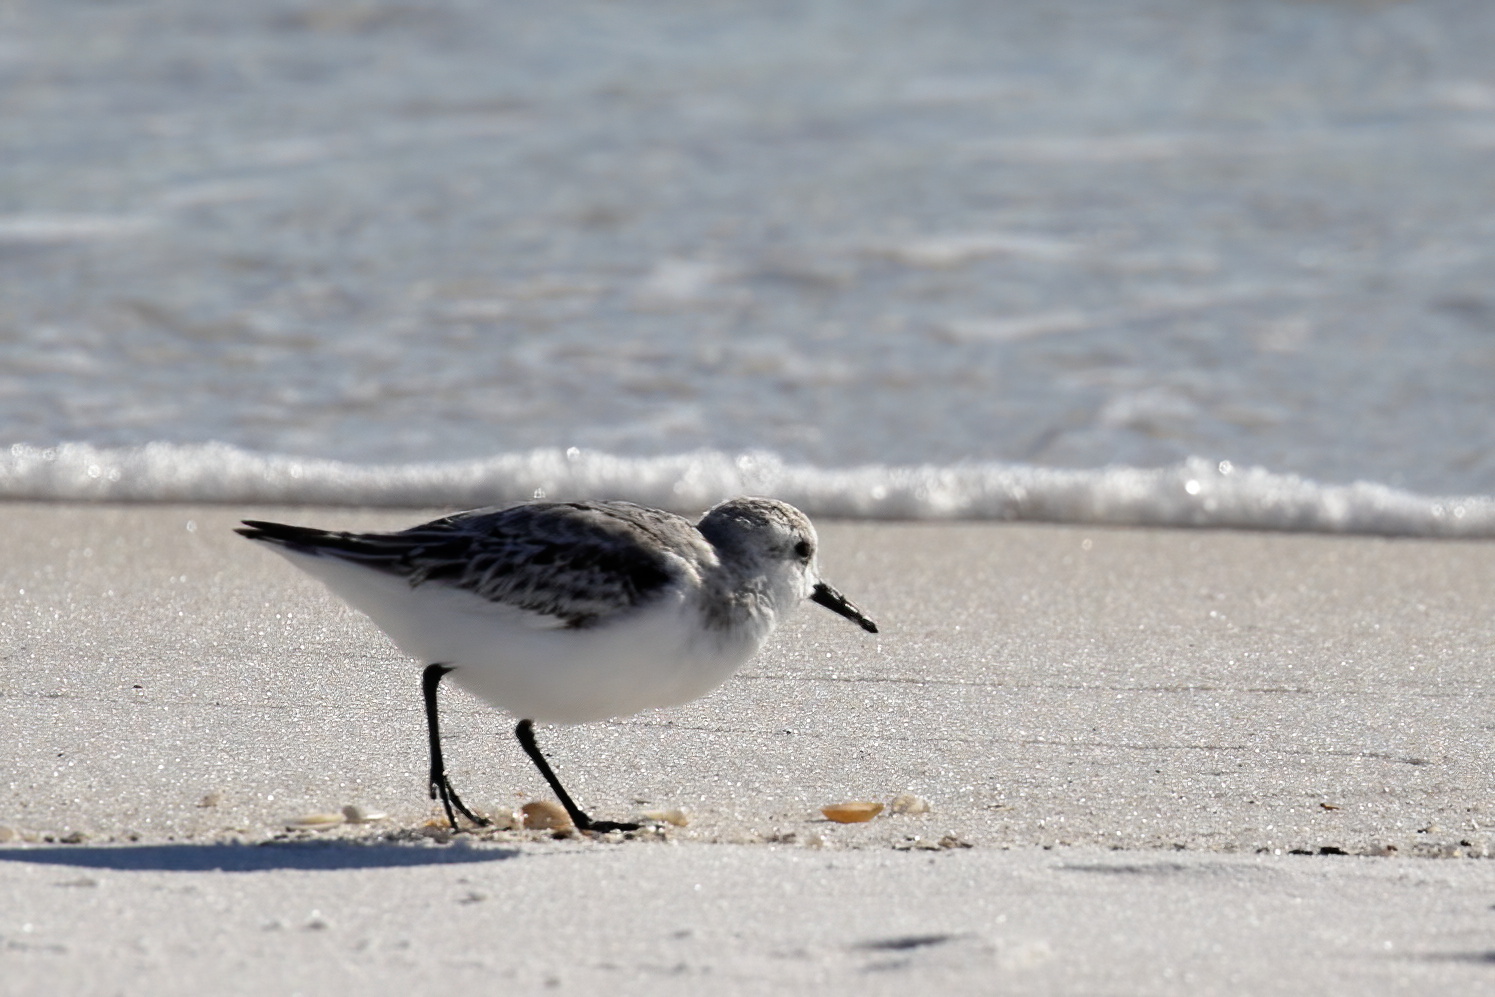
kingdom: Animalia
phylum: Chordata
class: Aves
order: Charadriiformes
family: Scolopacidae
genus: Calidris
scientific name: Calidris alba
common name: Sanderling
